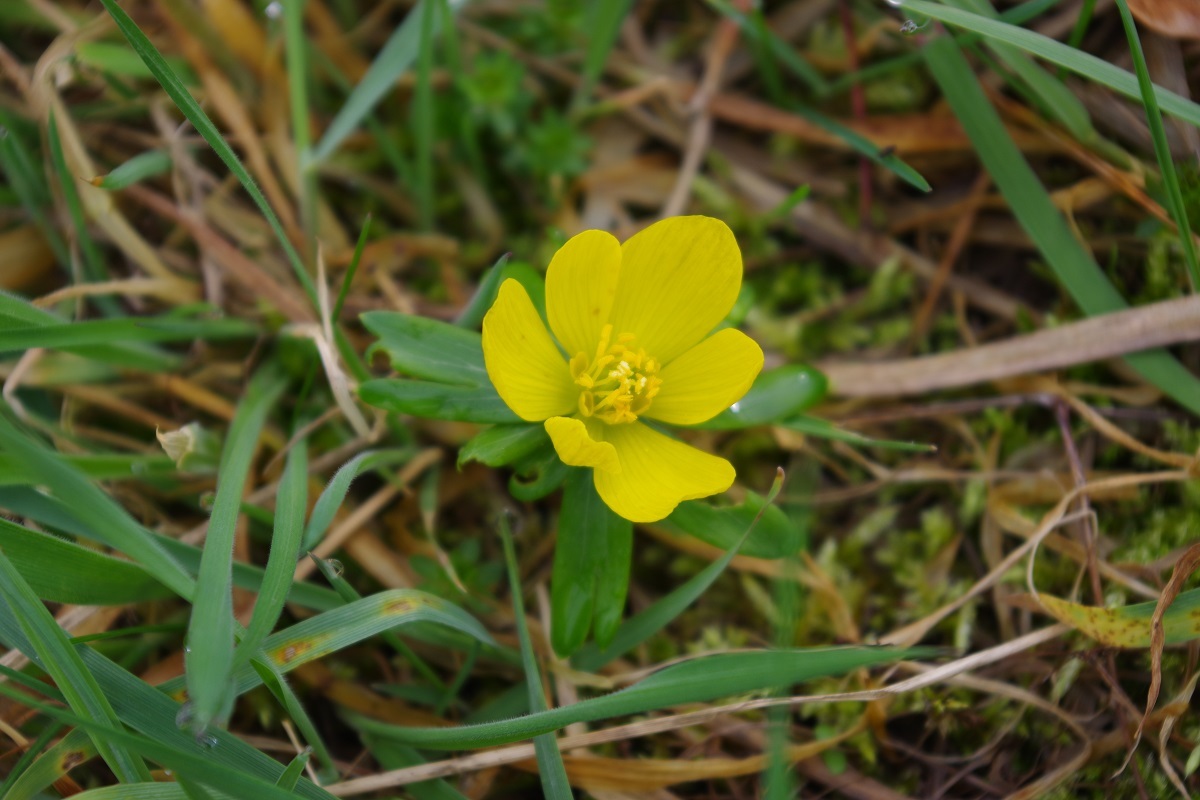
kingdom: Plantae
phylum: Tracheophyta
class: Magnoliopsida
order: Ranunculales
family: Ranunculaceae
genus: Eranthis
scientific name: Eranthis hyemalis
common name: Winter aconite
